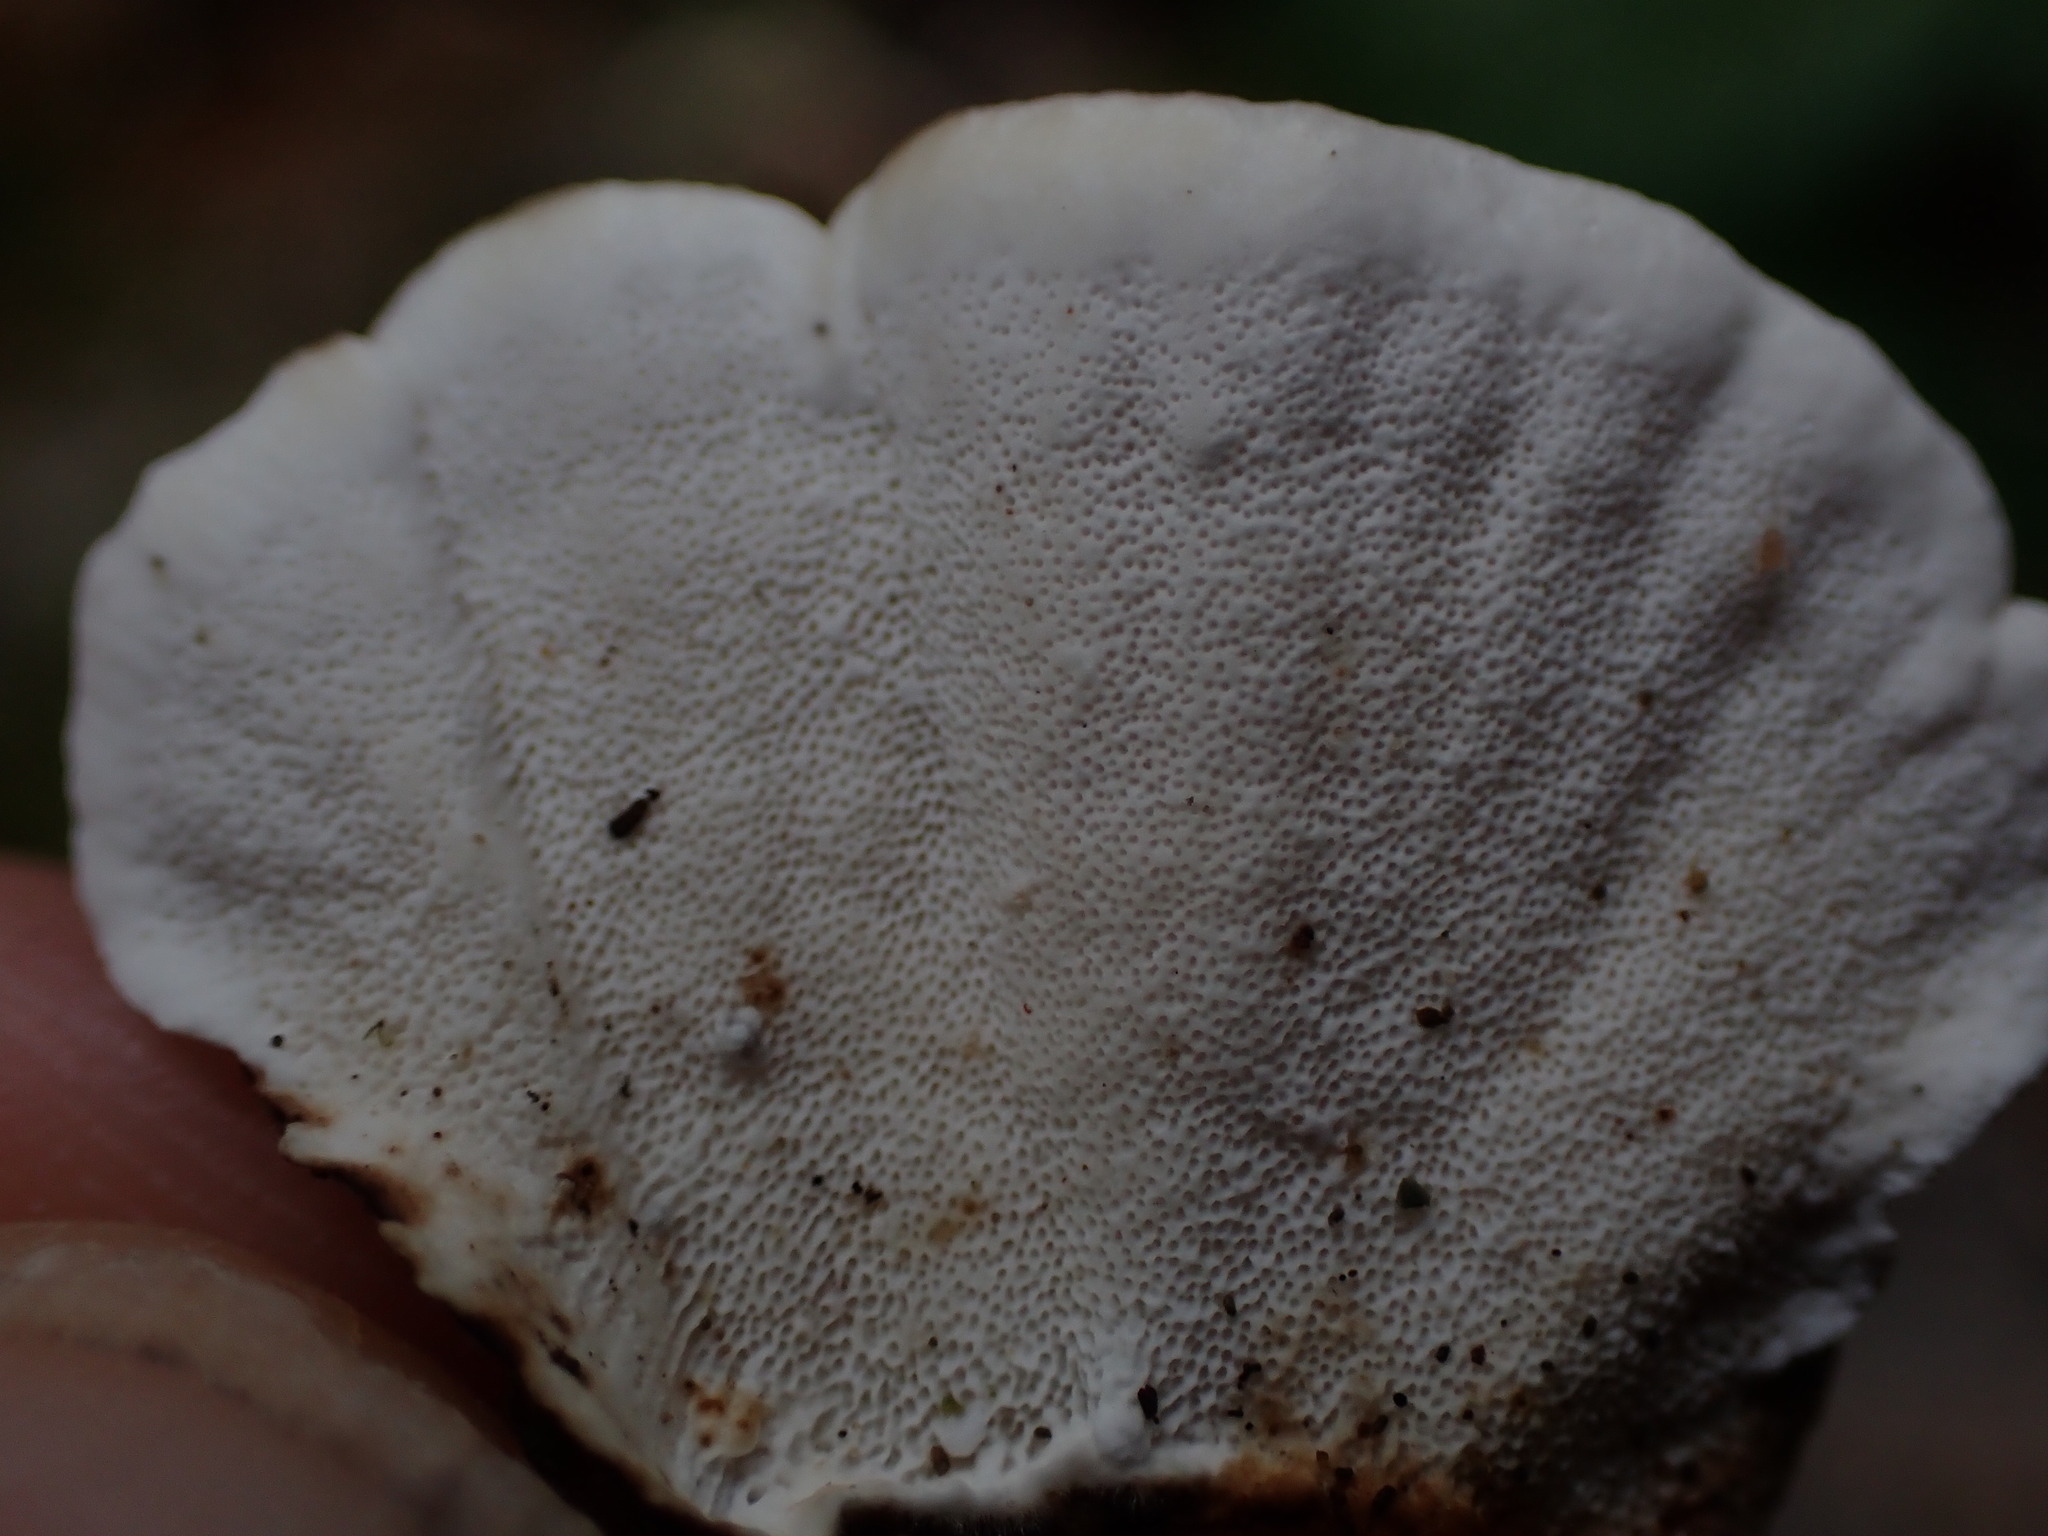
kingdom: Fungi
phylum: Basidiomycota
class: Agaricomycetes
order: Polyporales
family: Polyporaceae
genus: Trametes
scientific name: Trametes versicolor
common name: Turkeytail
